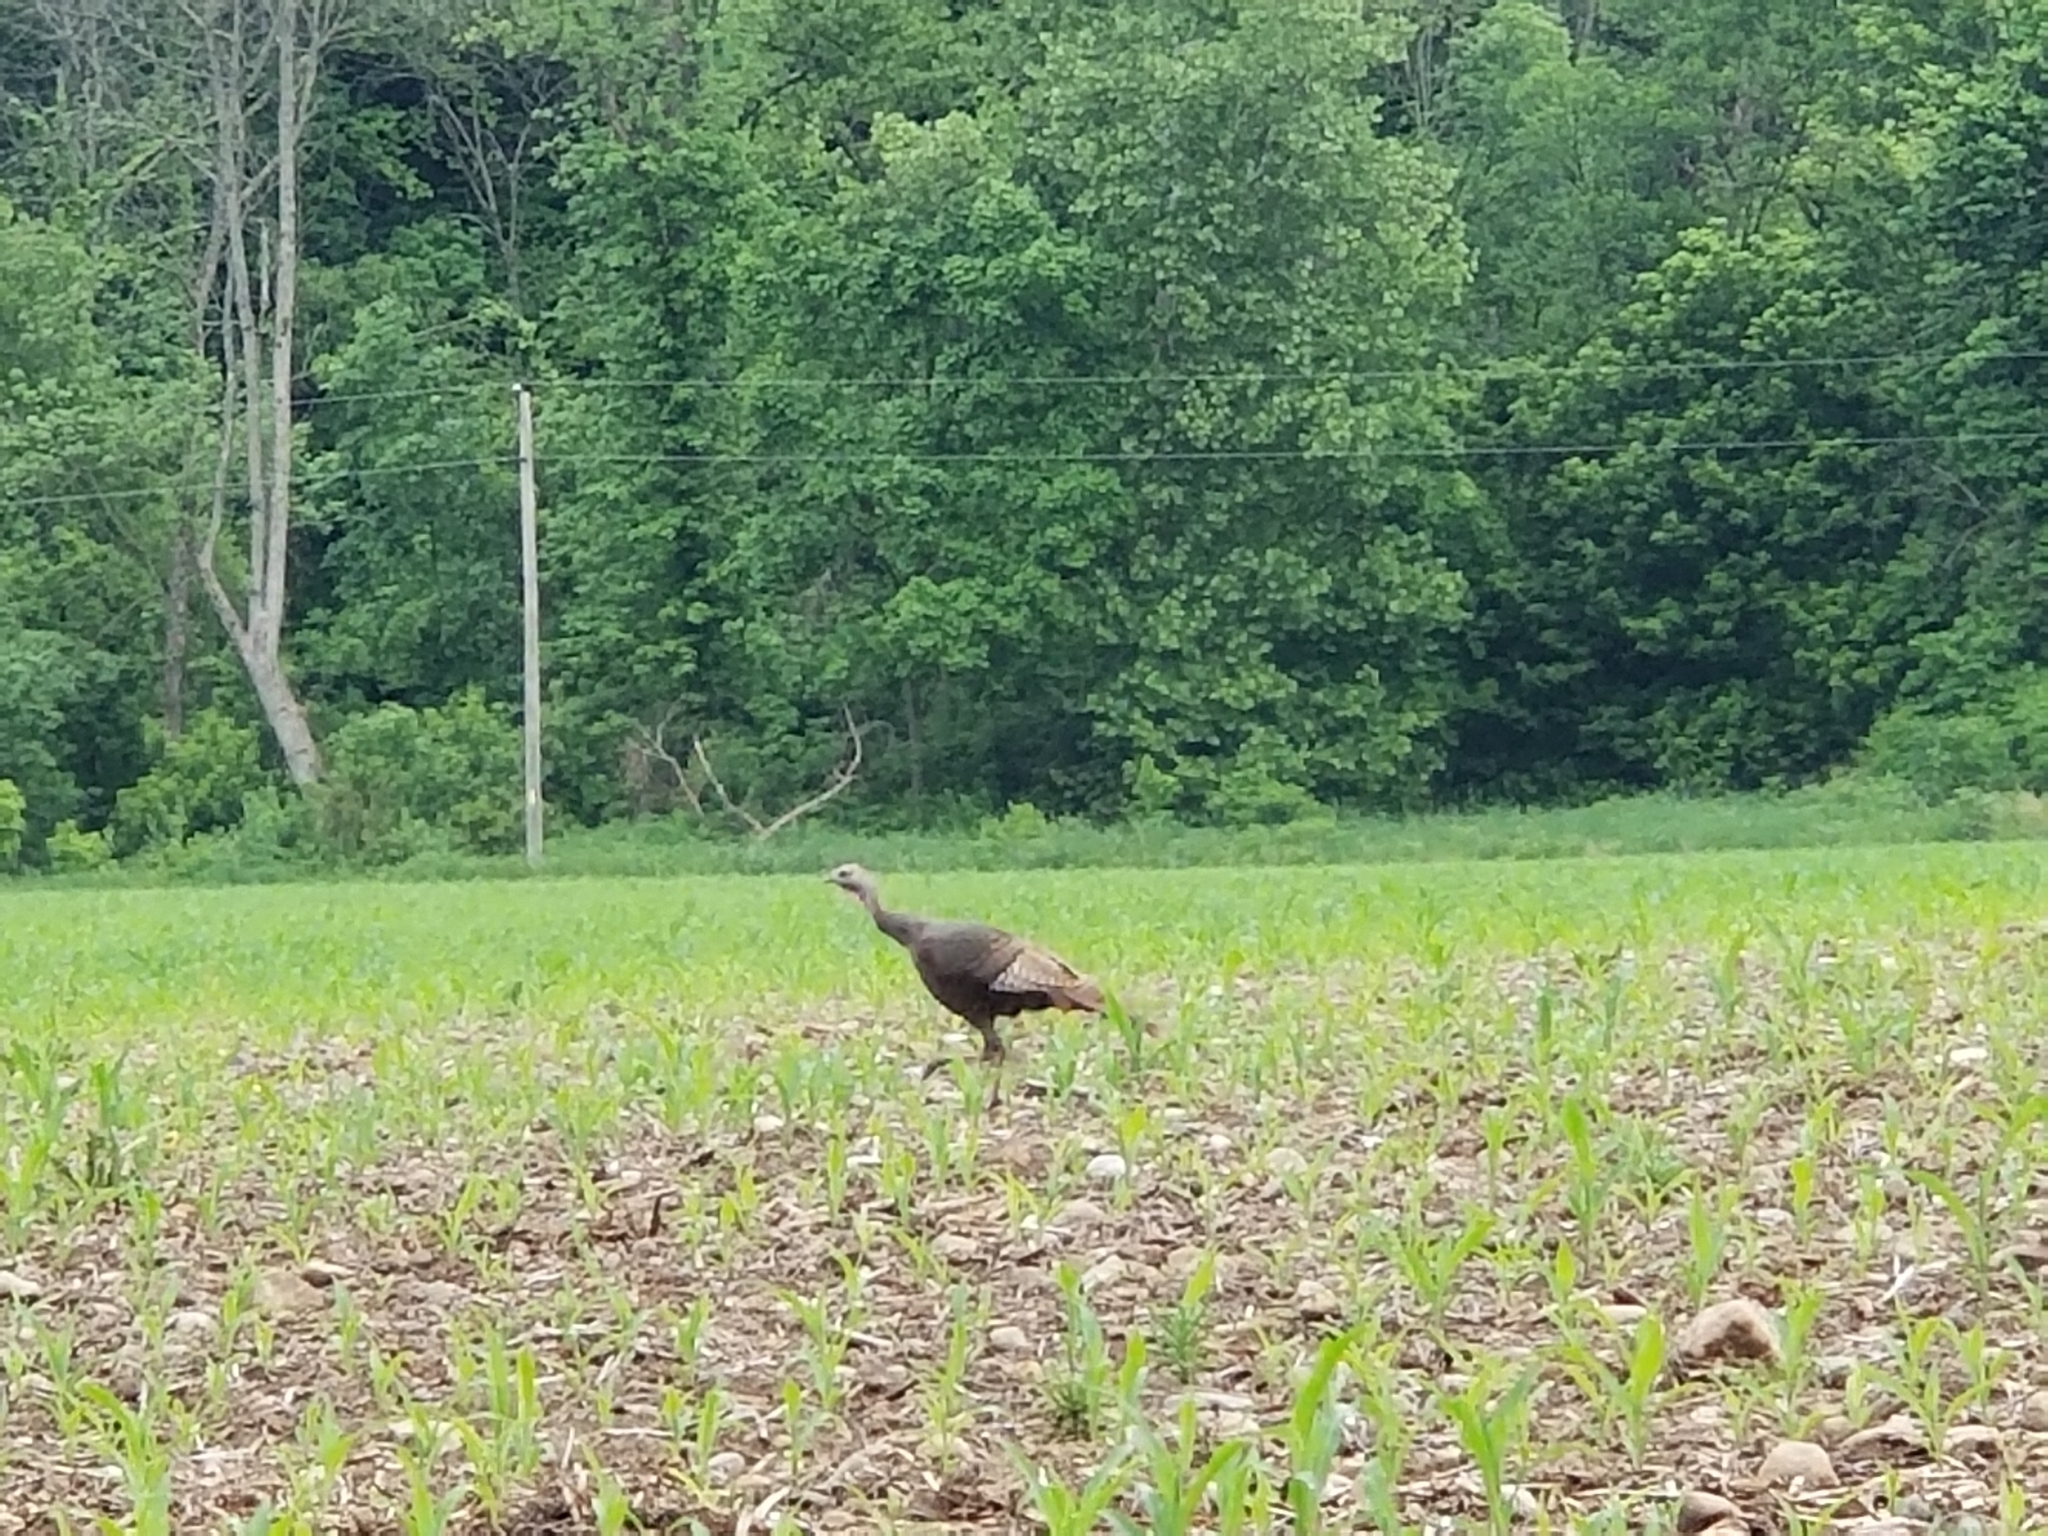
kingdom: Animalia
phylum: Chordata
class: Aves
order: Galliformes
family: Phasianidae
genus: Meleagris
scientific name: Meleagris gallopavo
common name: Wild turkey
